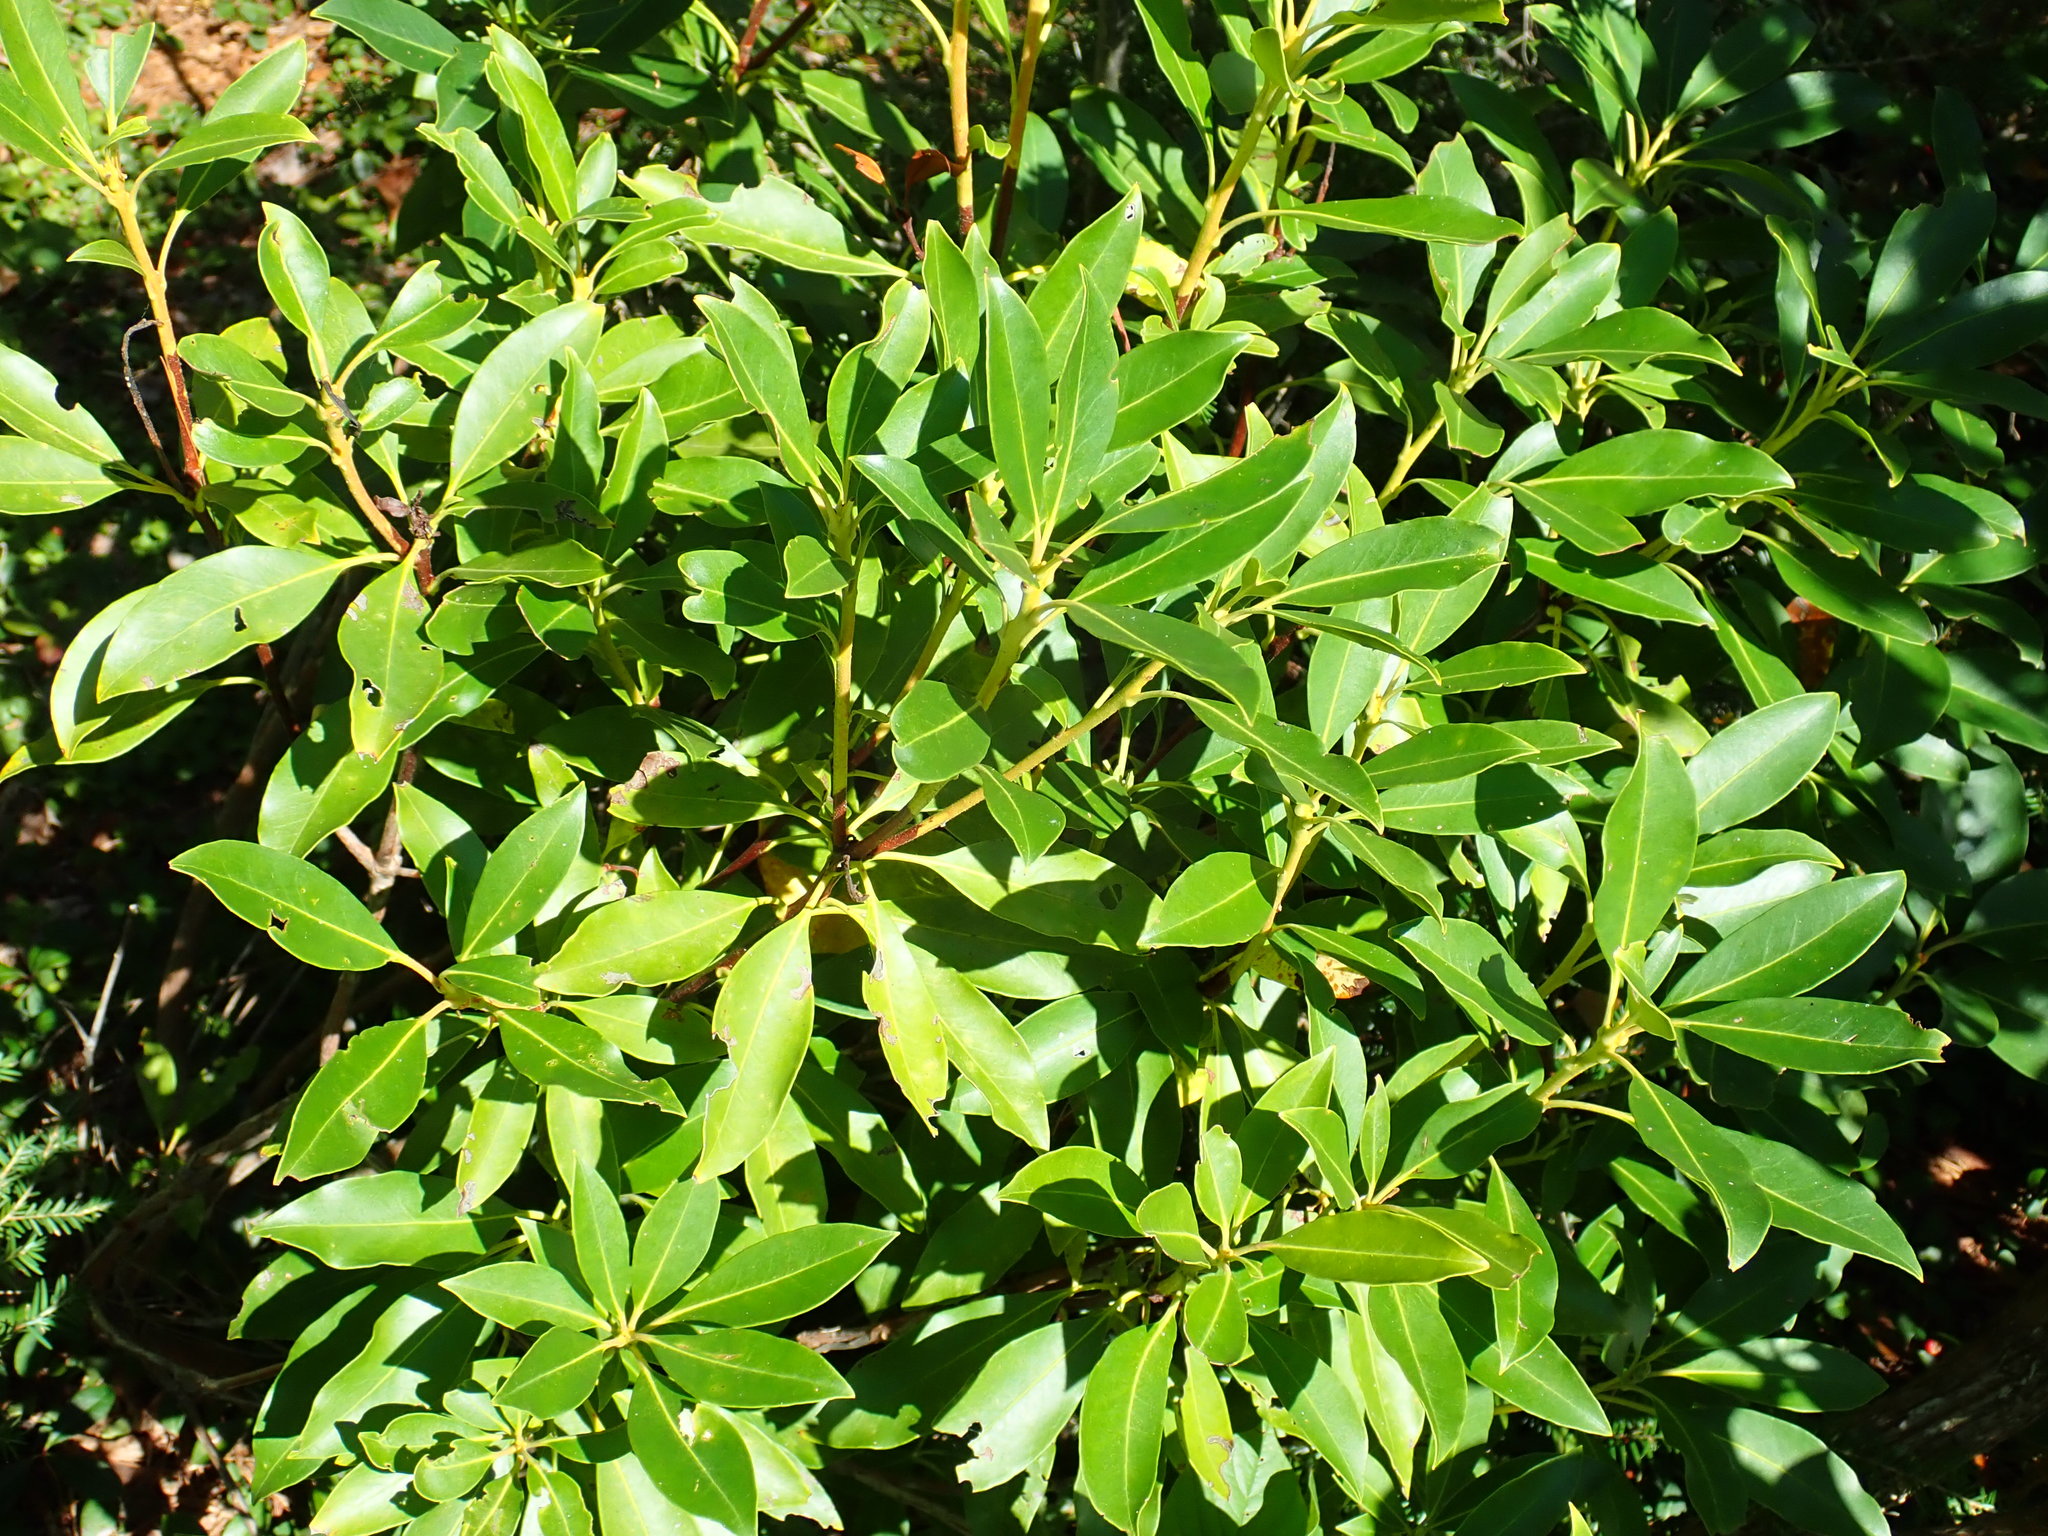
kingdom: Plantae
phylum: Tracheophyta
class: Magnoliopsida
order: Ericales
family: Ericaceae
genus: Kalmia
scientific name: Kalmia latifolia
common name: Mountain-laurel
